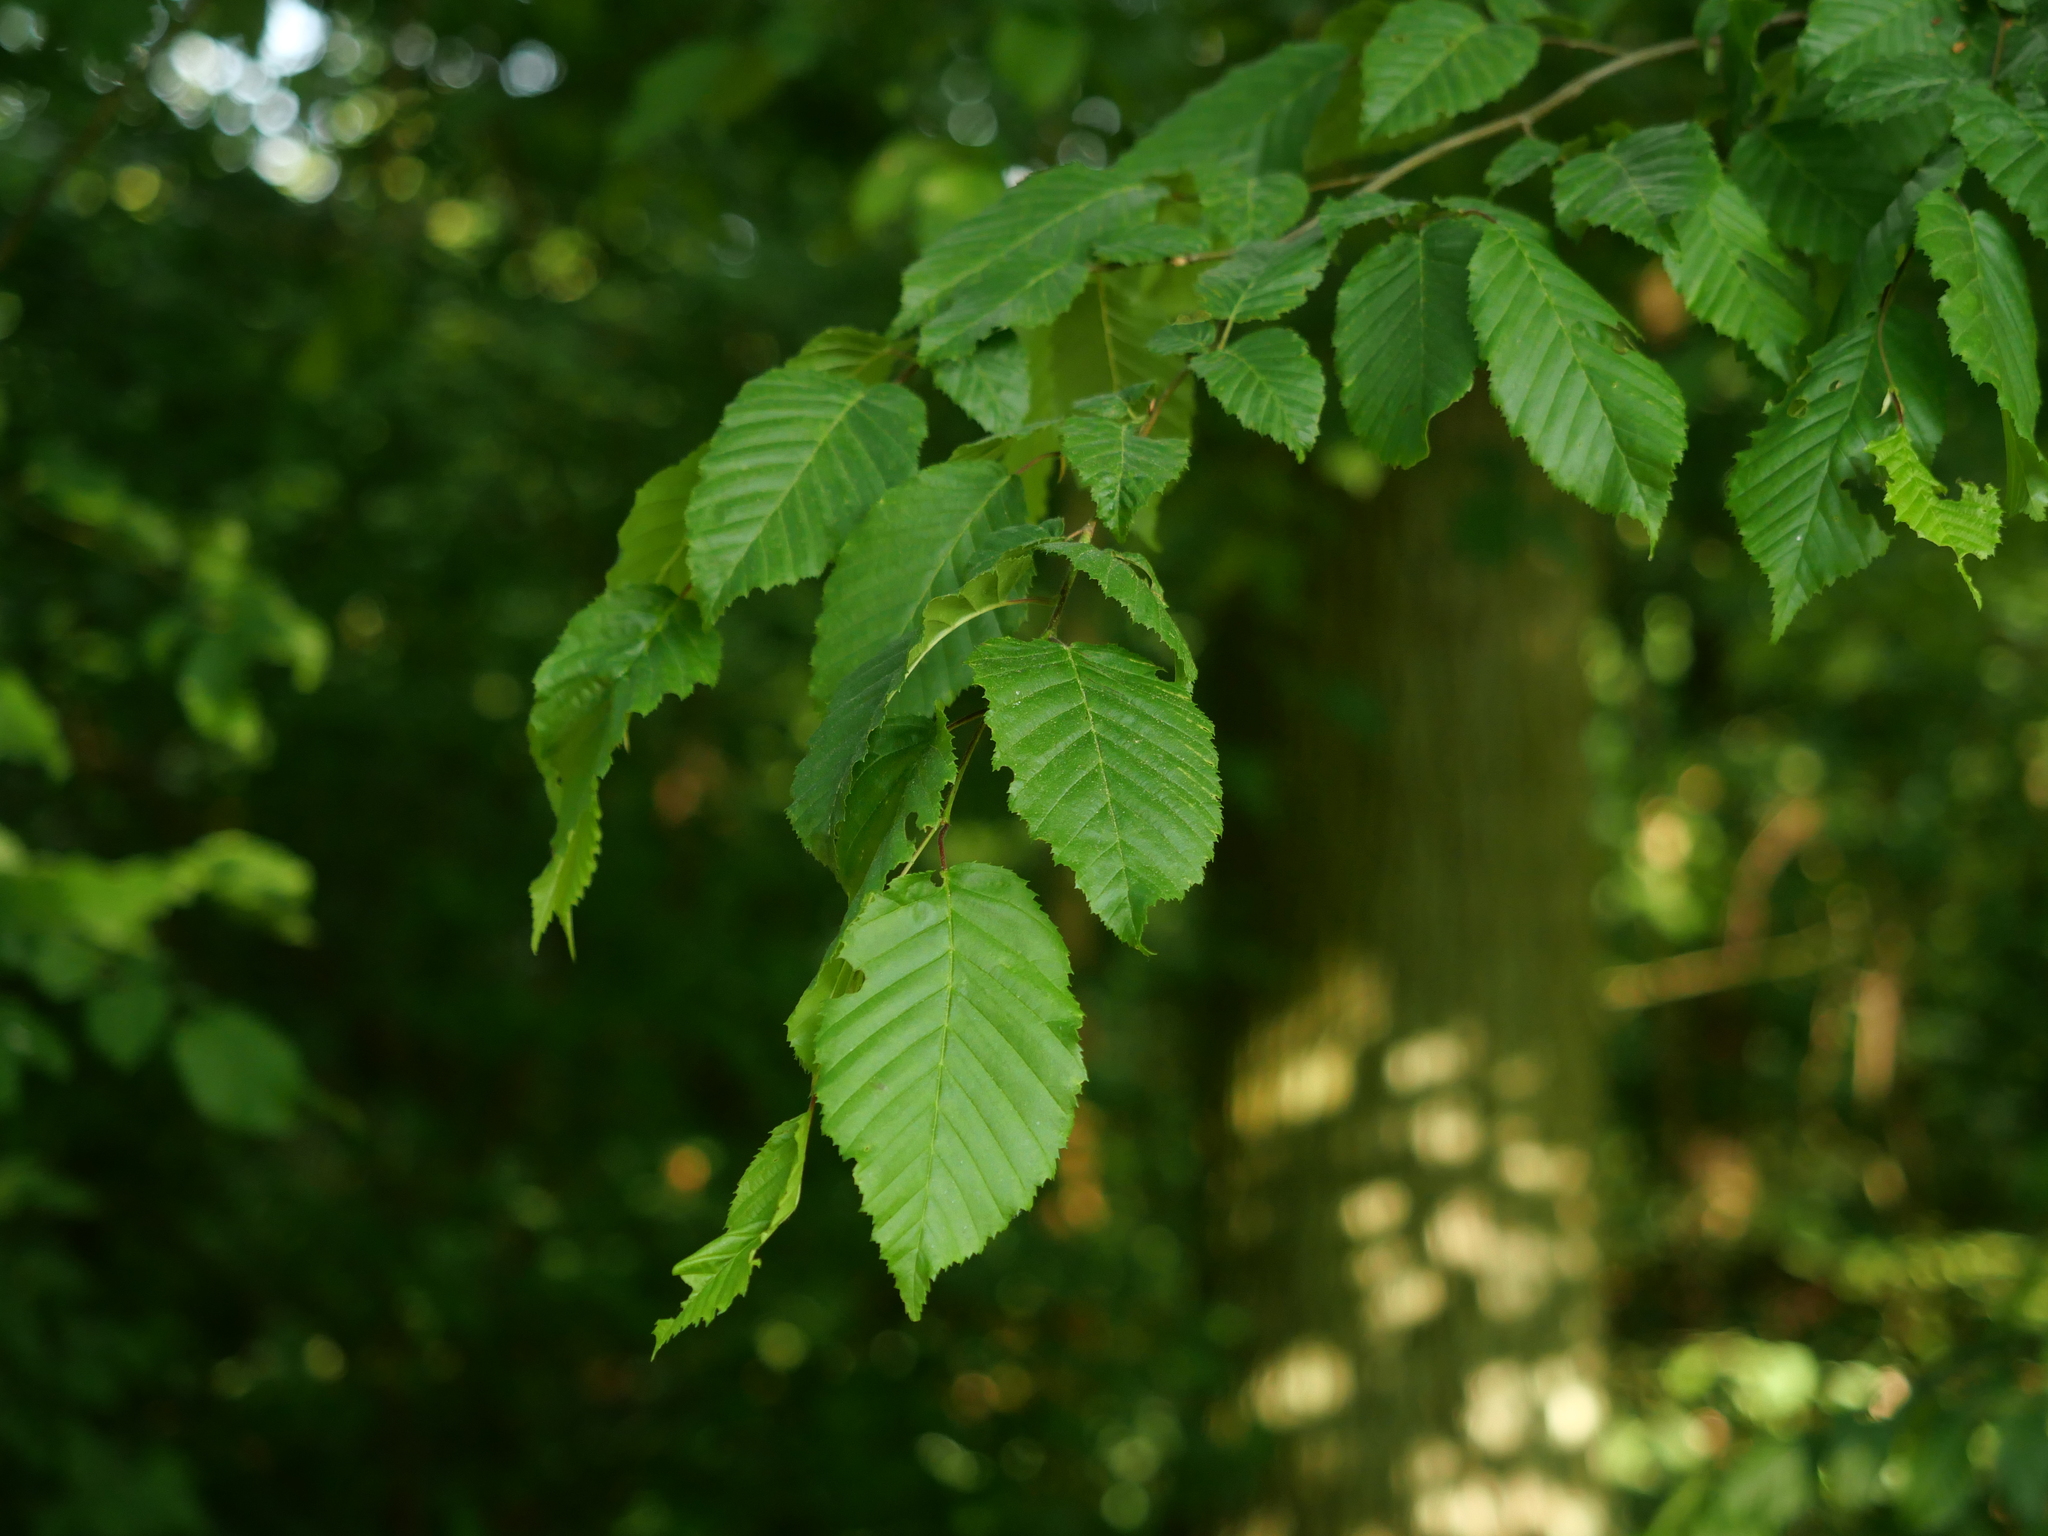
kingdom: Plantae
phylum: Tracheophyta
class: Magnoliopsida
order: Fagales
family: Betulaceae
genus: Carpinus
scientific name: Carpinus betulus
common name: Hornbeam
